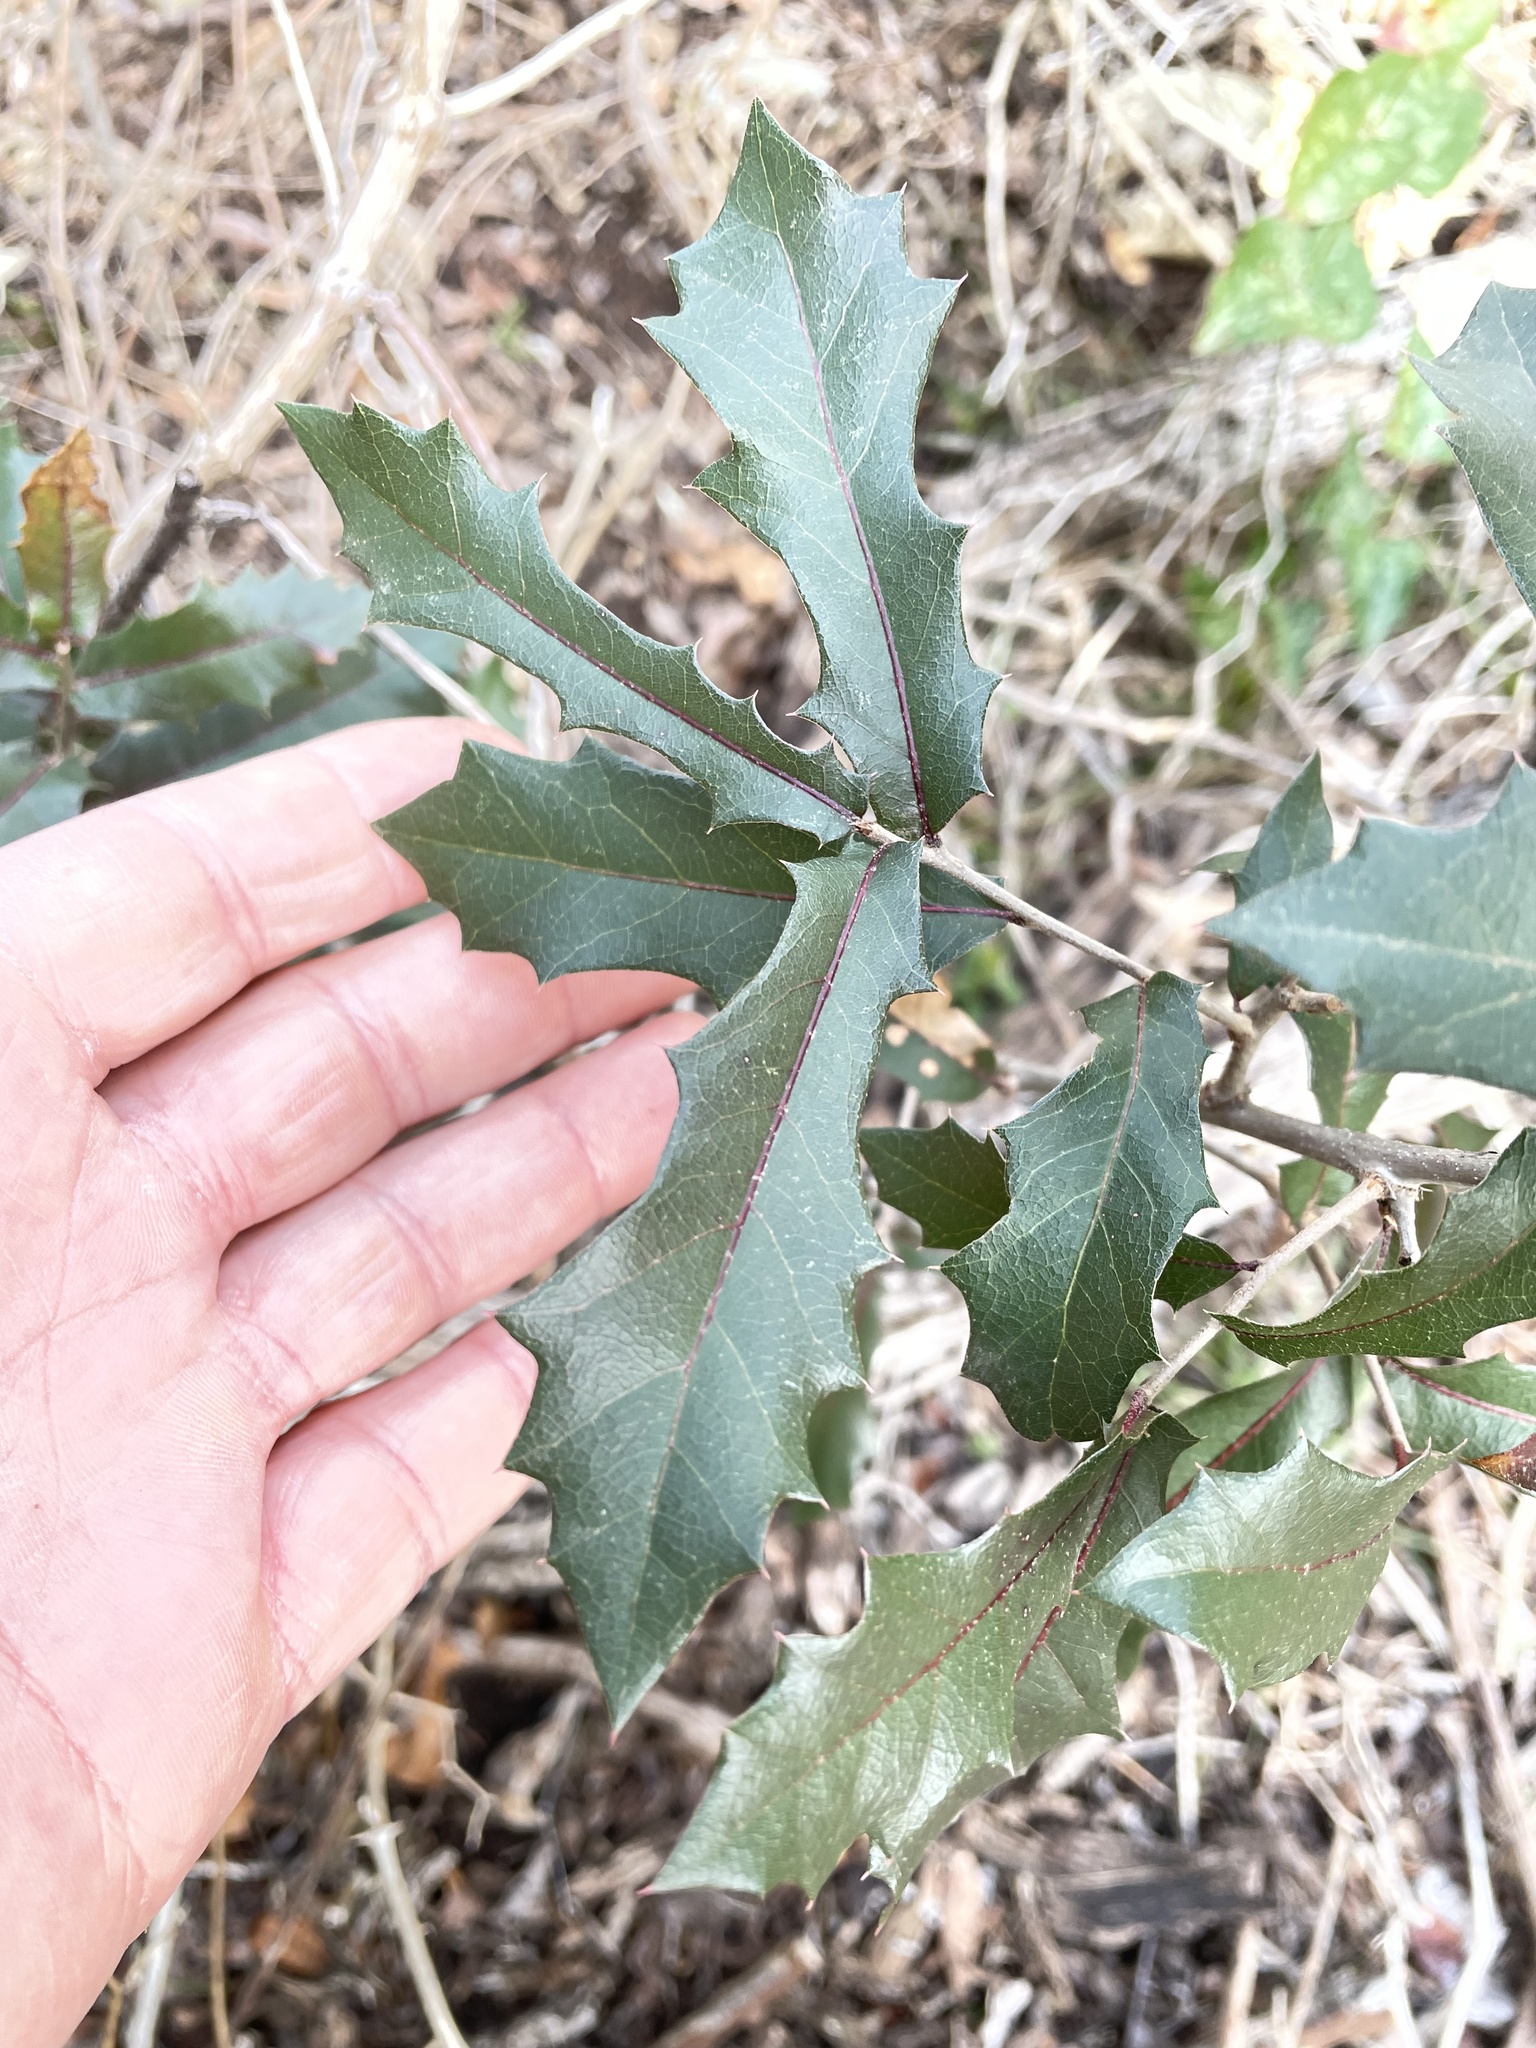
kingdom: Plantae
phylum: Tracheophyta
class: Magnoliopsida
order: Fagales
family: Fagaceae
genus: Quercus
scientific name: Quercus fusiformis
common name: Texas live oak
